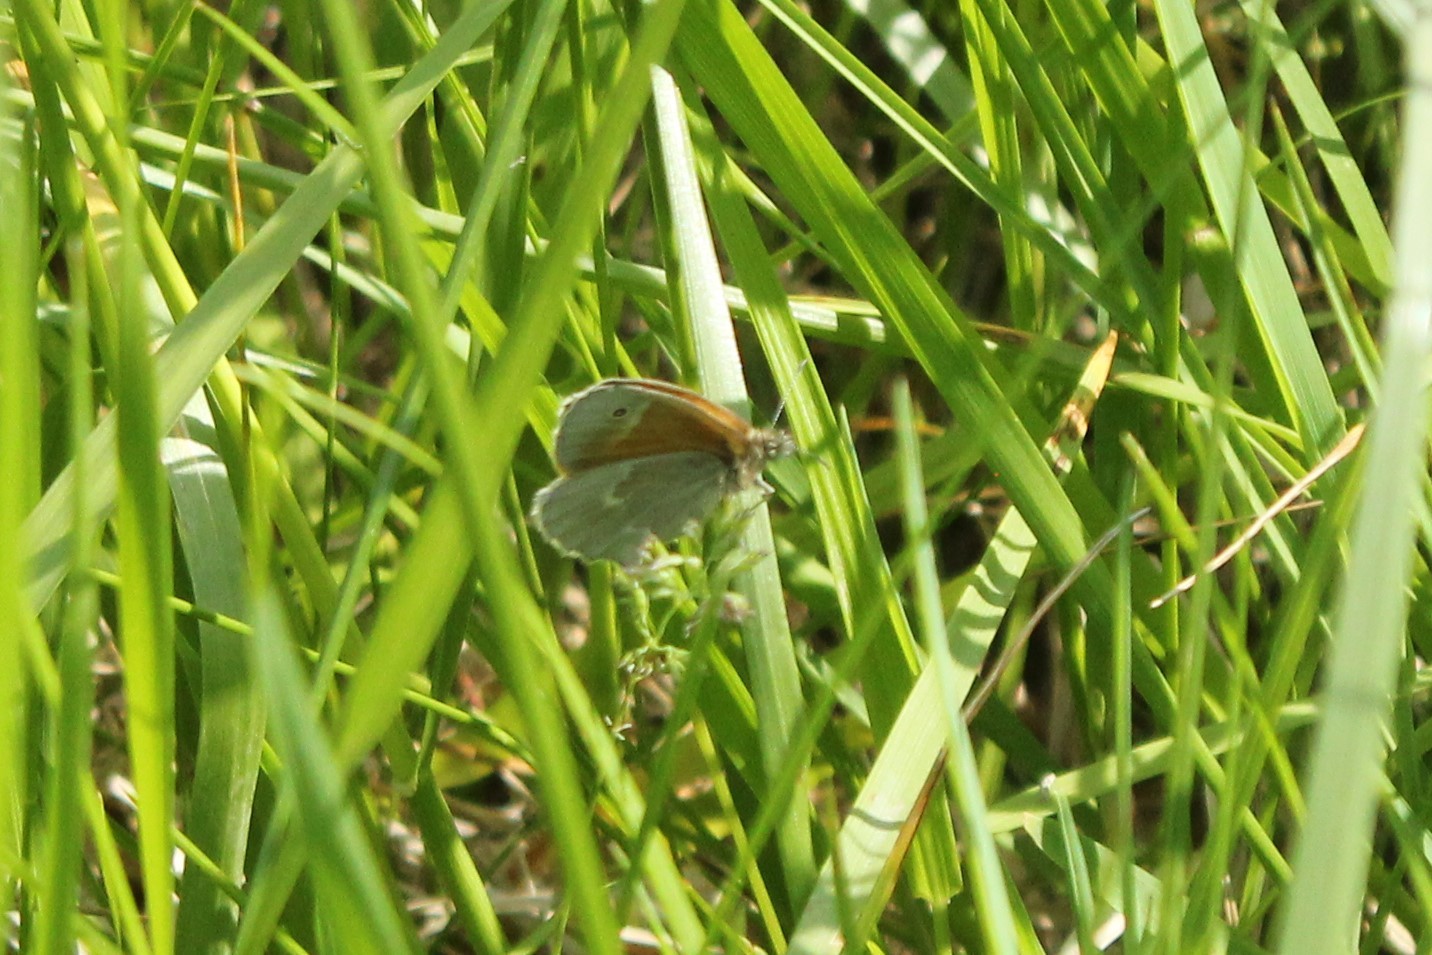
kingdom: Animalia
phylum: Arthropoda
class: Insecta
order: Lepidoptera
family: Nymphalidae
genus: Coenonympha
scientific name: Coenonympha california
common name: Common ringlet
